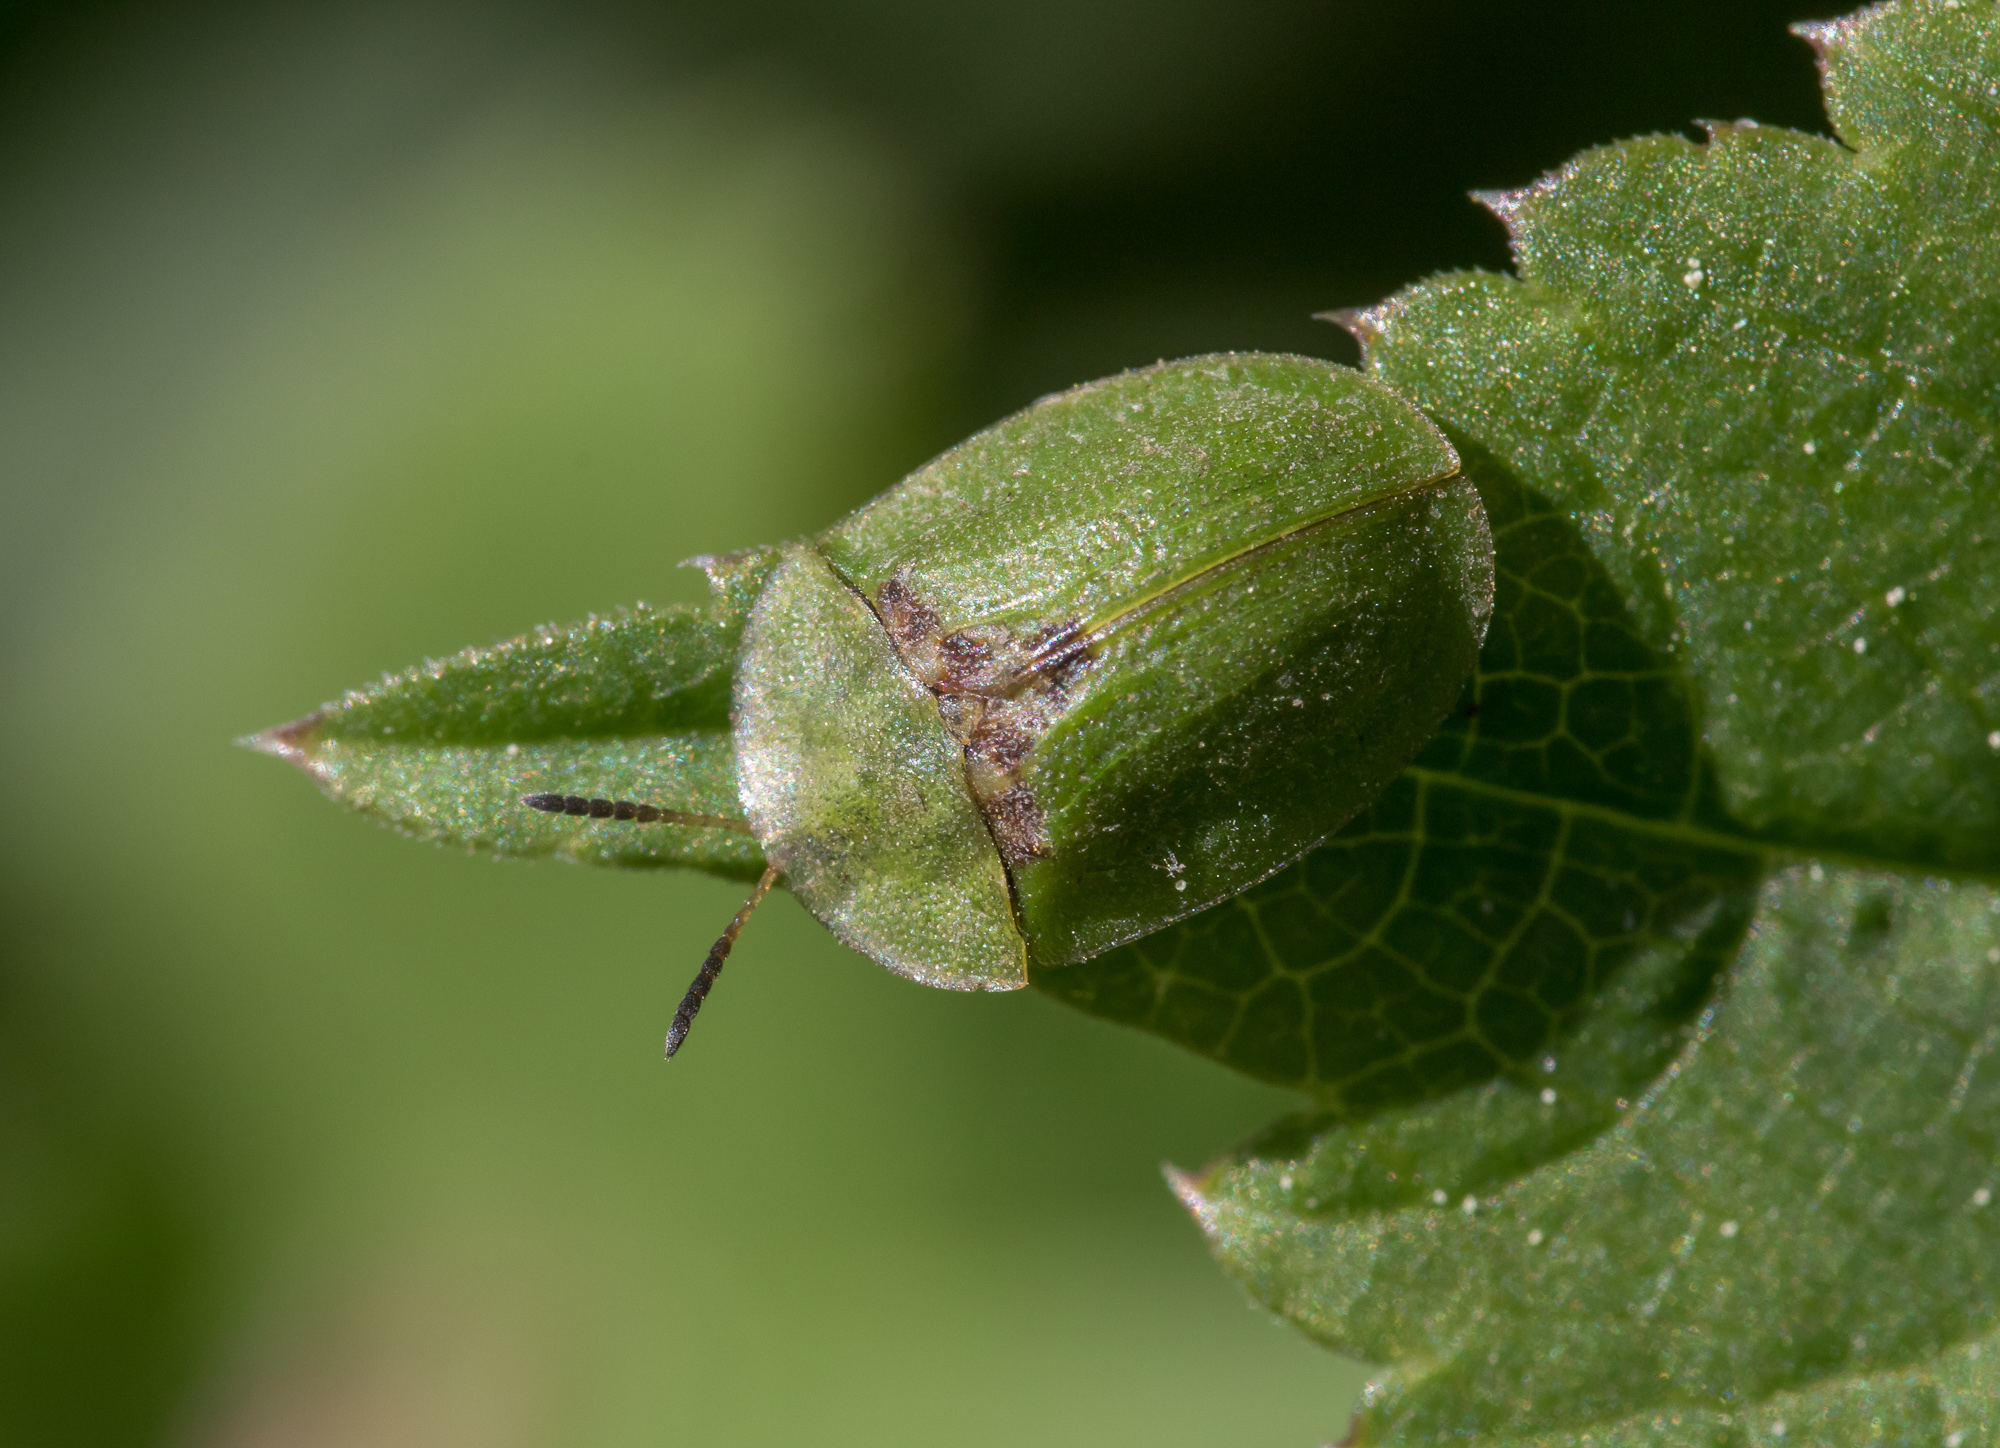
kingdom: Animalia
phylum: Arthropoda
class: Insecta
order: Coleoptera
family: Chrysomelidae
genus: Cassida
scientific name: Cassida rubiginosa
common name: Thistle tortoise beetle
